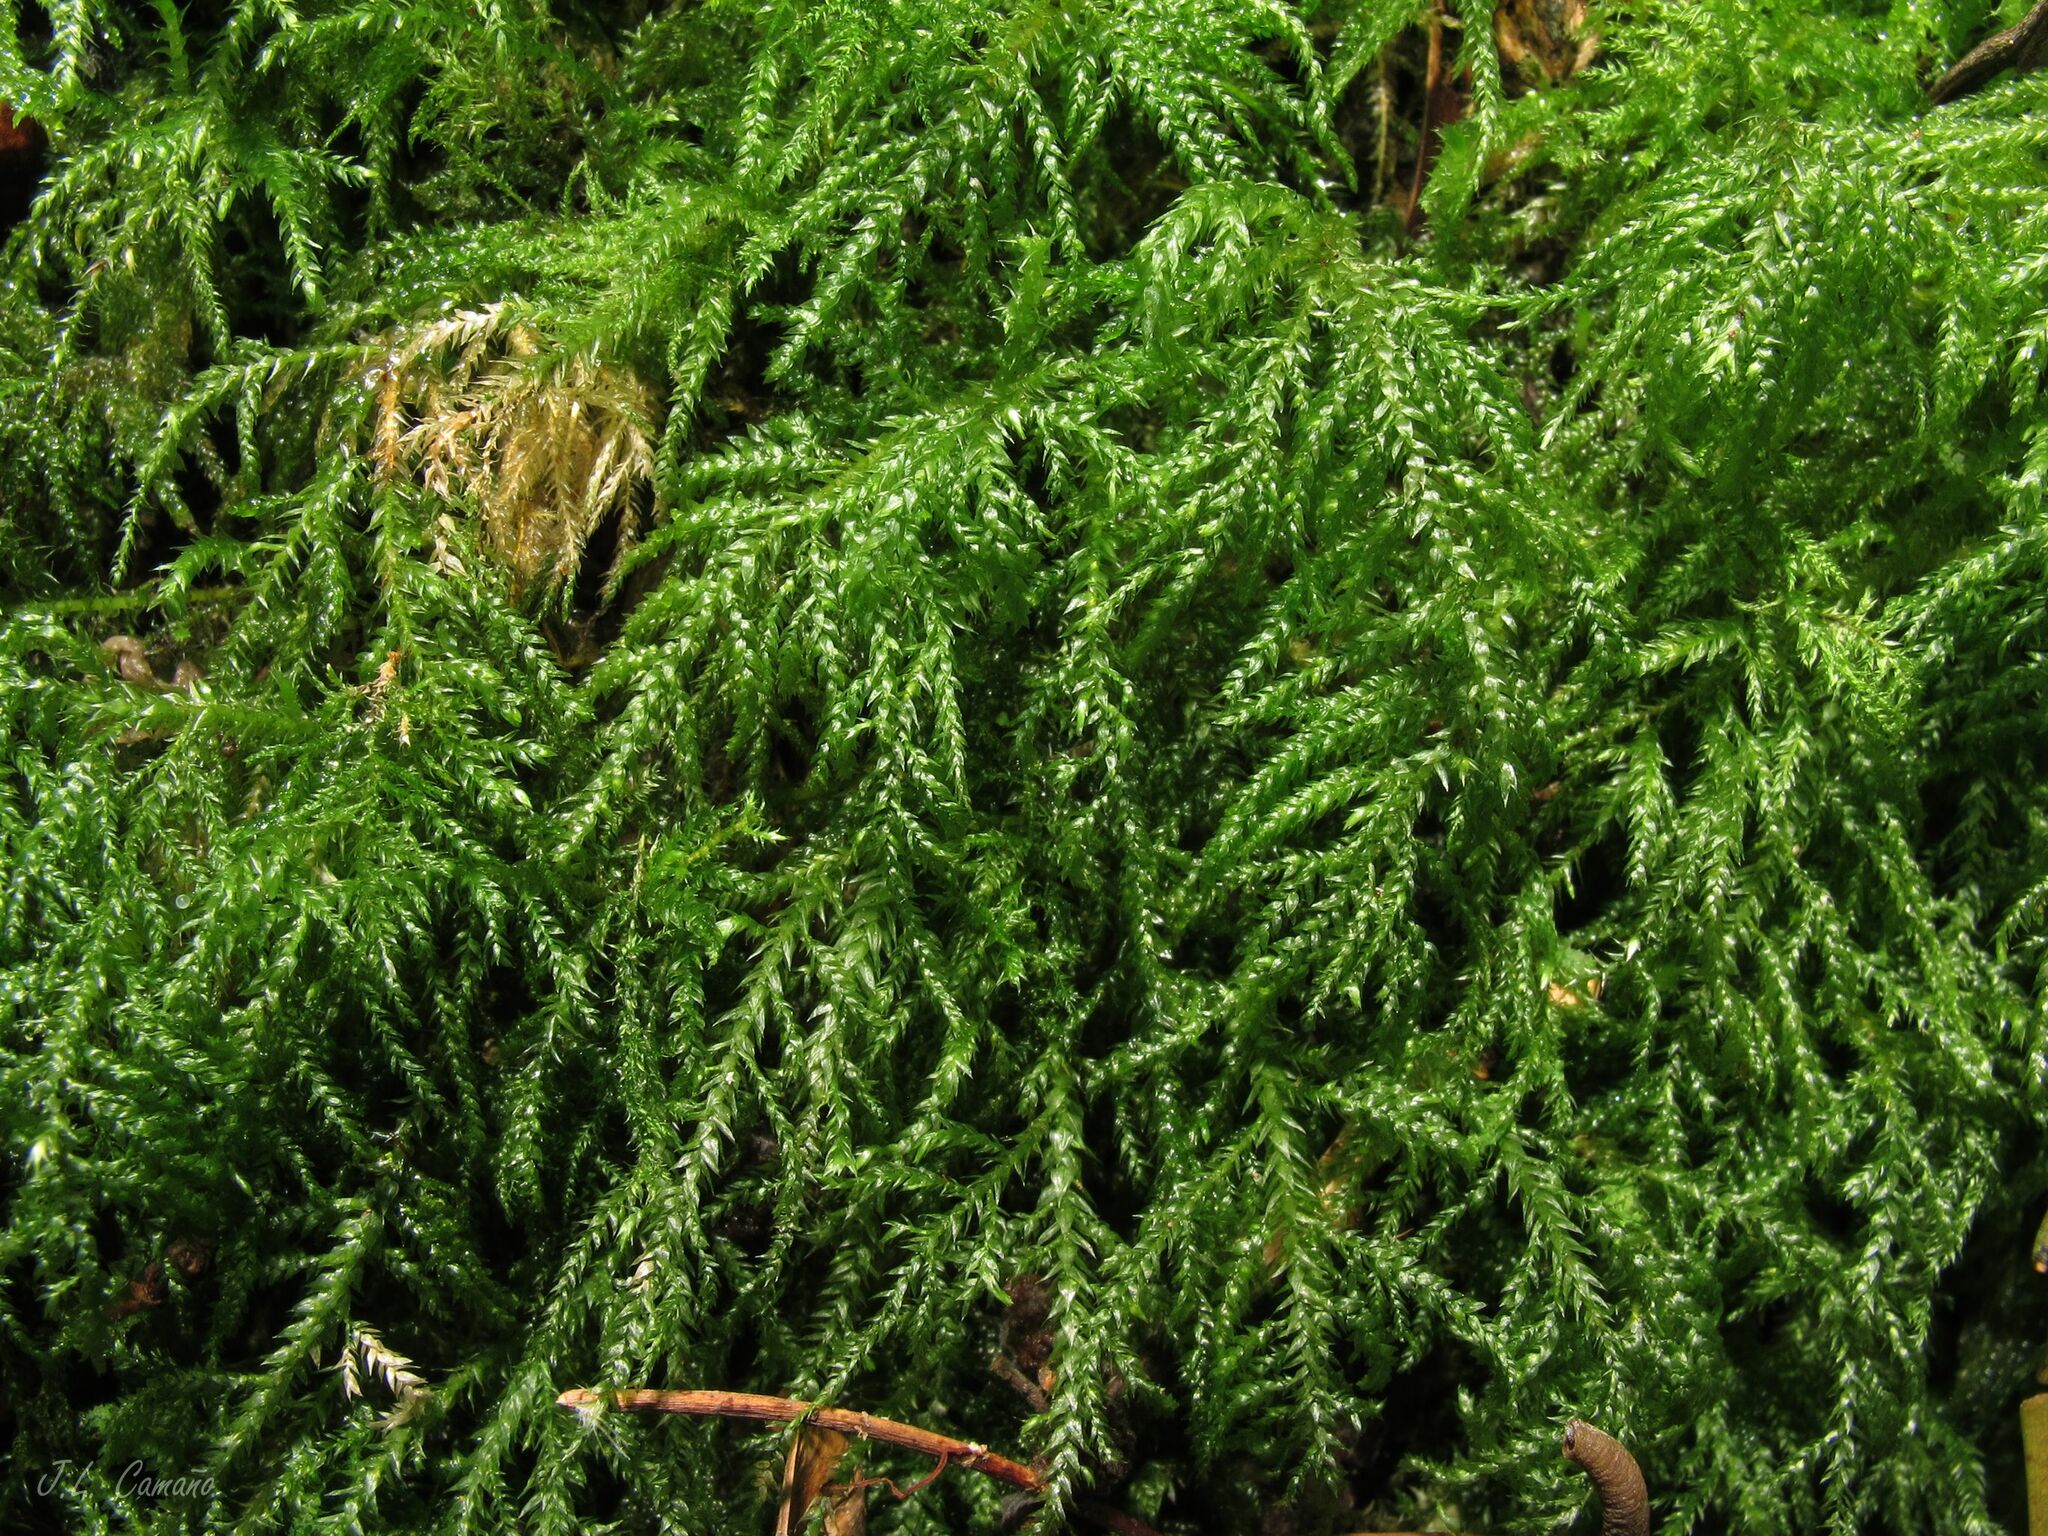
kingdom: Plantae
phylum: Bryophyta
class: Bryopsida
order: Hypnales
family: Brachytheciaceae
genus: Kindbergia
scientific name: Kindbergia praelonga
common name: Slender beaked moss
